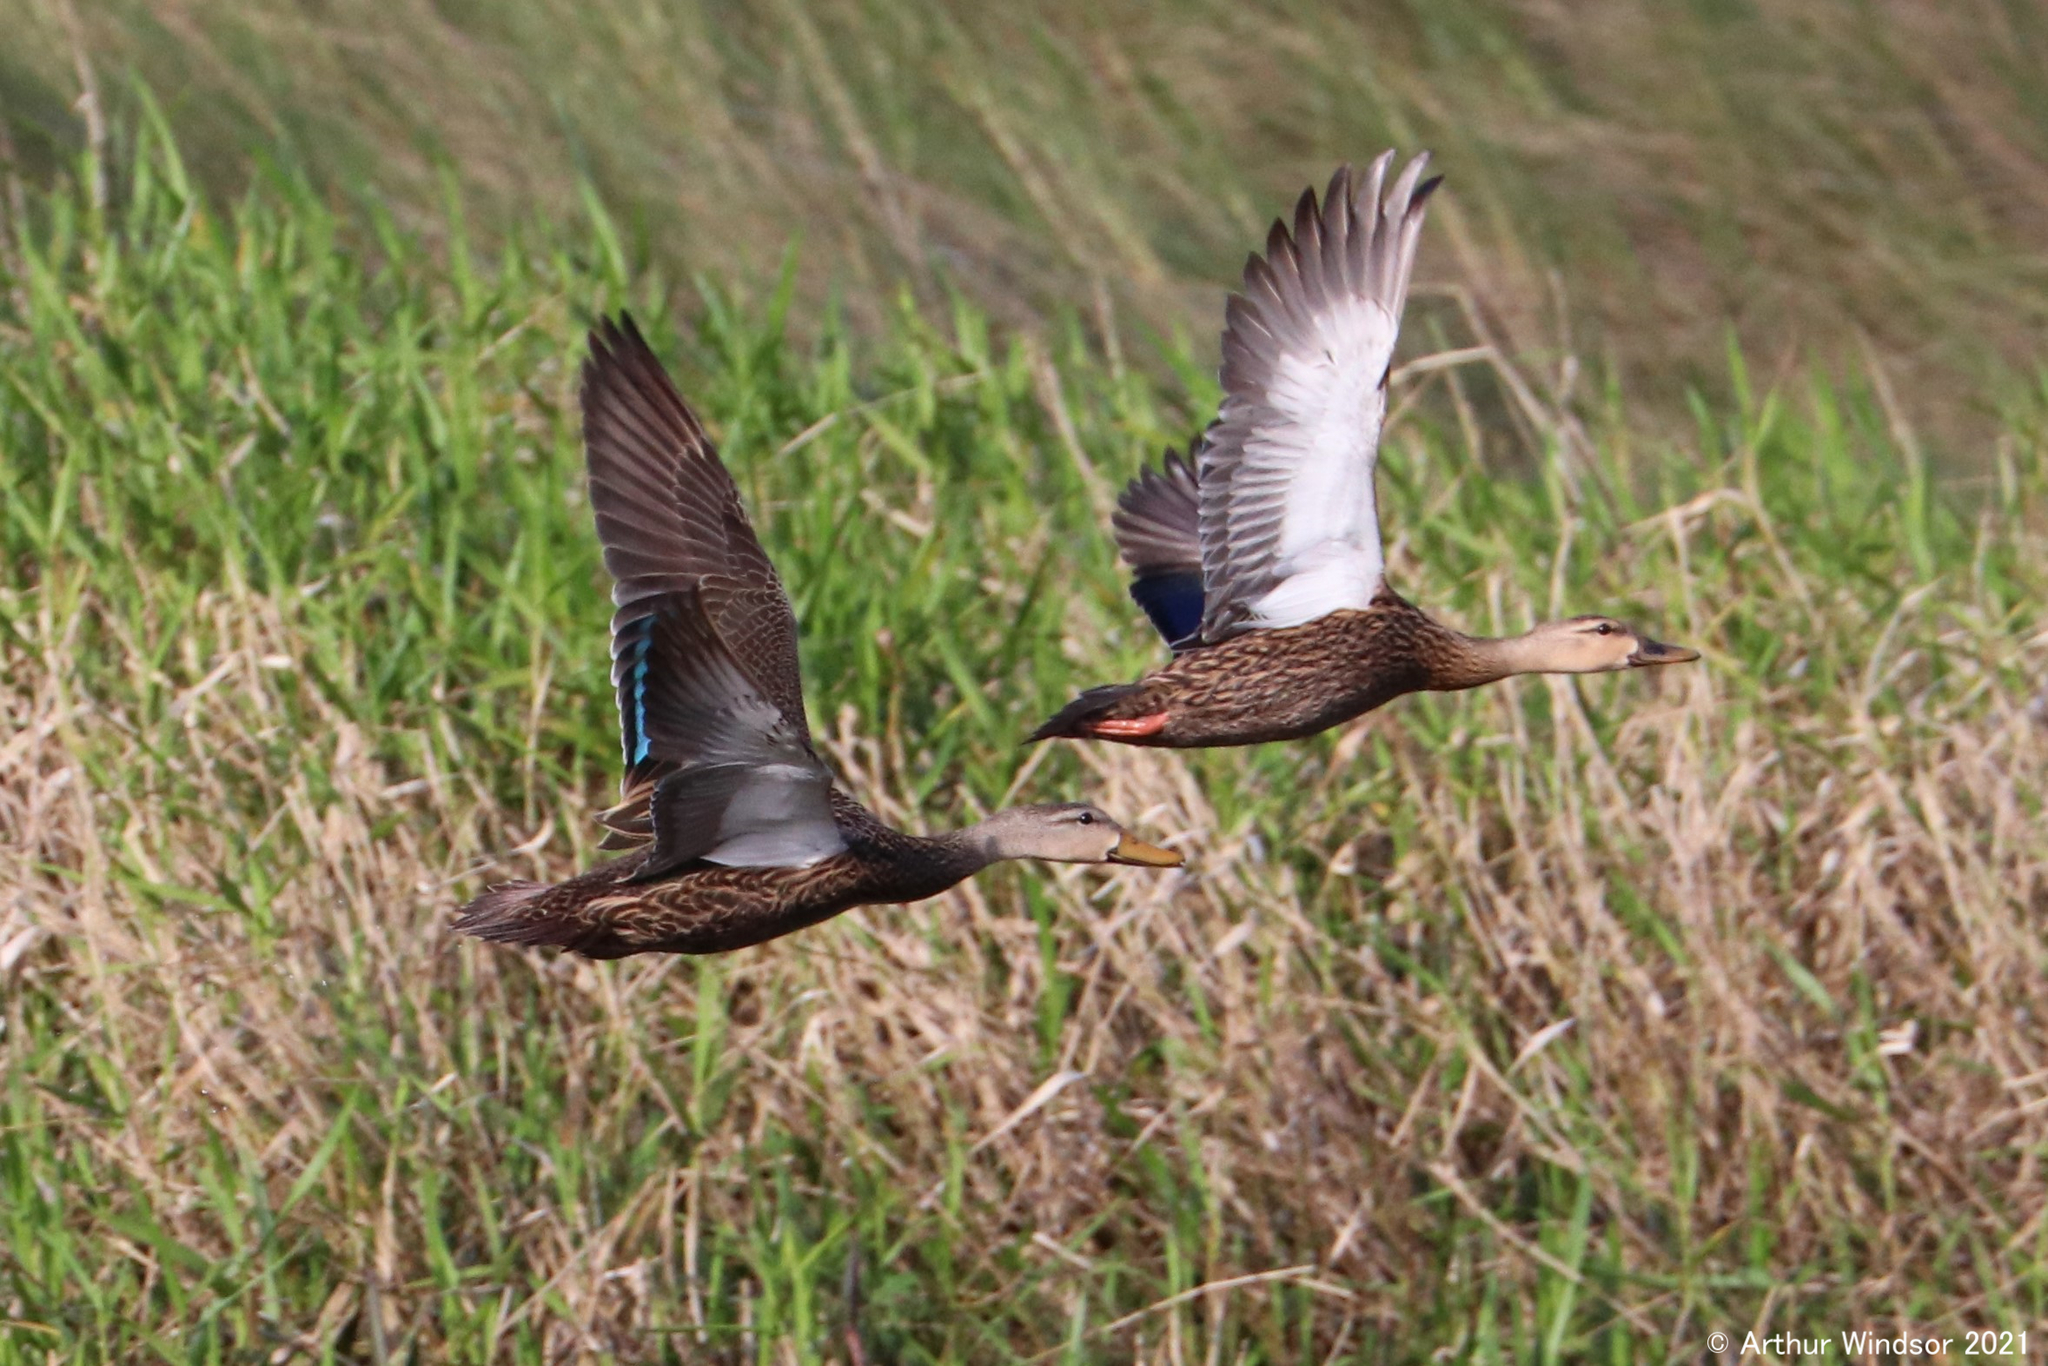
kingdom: Animalia
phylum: Chordata
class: Aves
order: Anseriformes
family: Anatidae
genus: Anas
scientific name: Anas fulvigula
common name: Mottled duck
